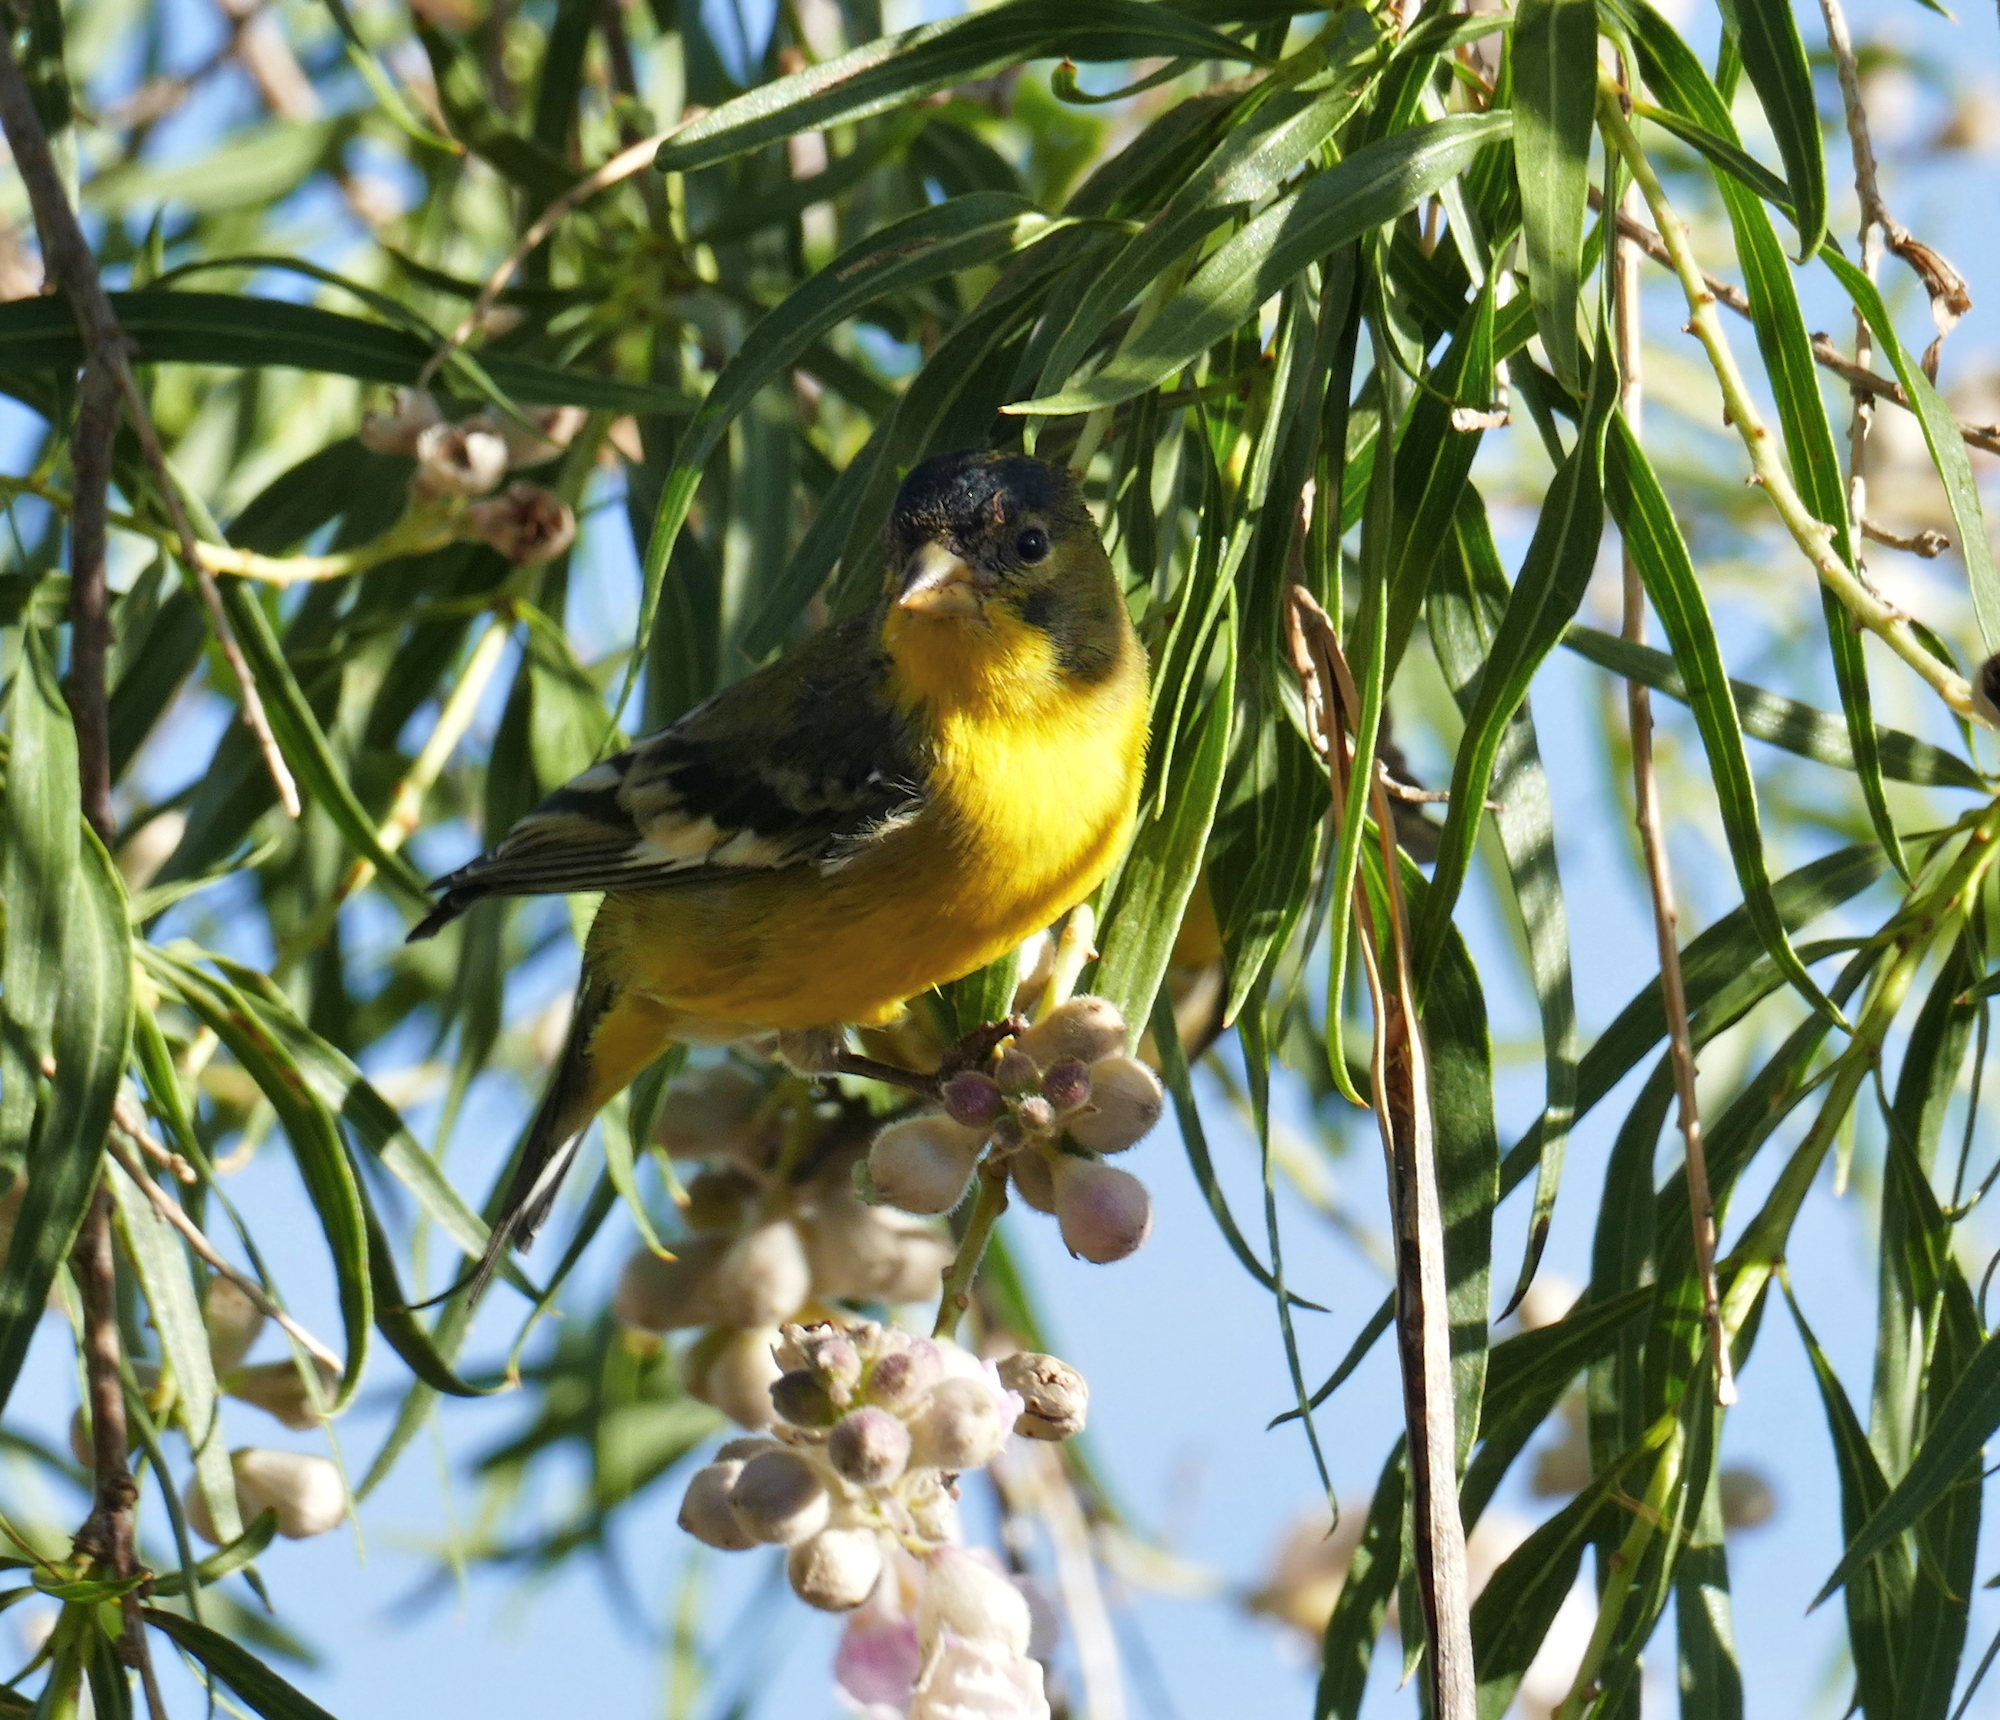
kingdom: Animalia
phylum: Chordata
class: Aves
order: Passeriformes
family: Fringillidae
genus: Spinus
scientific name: Spinus psaltria
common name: Lesser goldfinch
